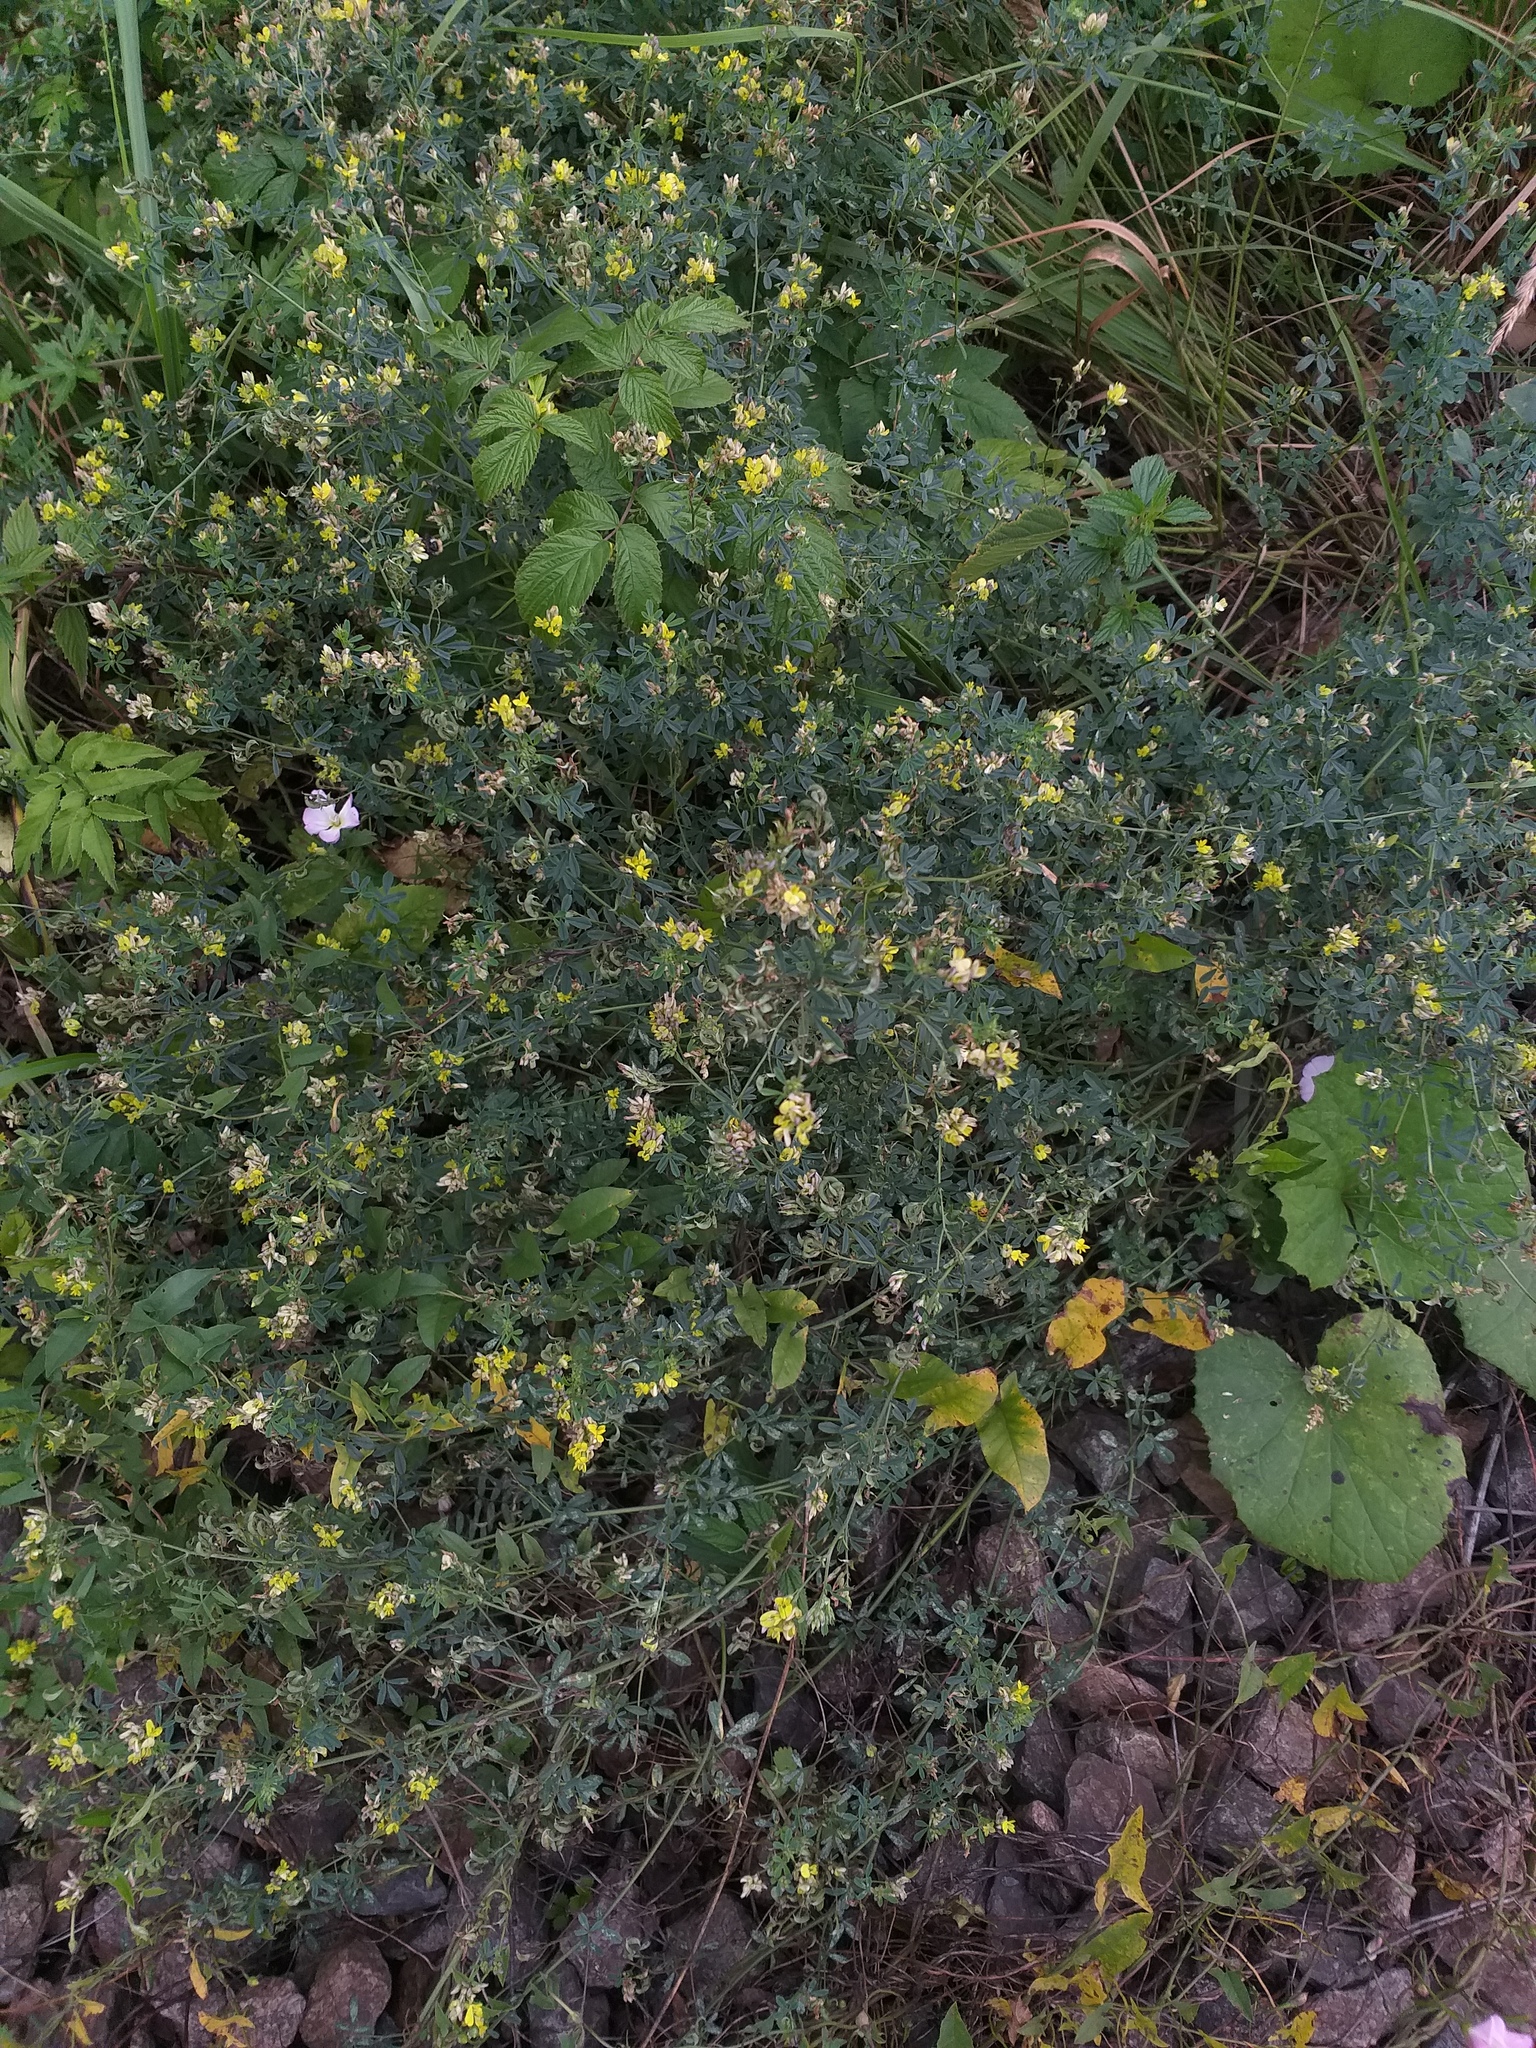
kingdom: Plantae
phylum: Tracheophyta
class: Magnoliopsida
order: Fabales
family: Fabaceae
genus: Medicago
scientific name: Medicago varia
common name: Sand lucerne
